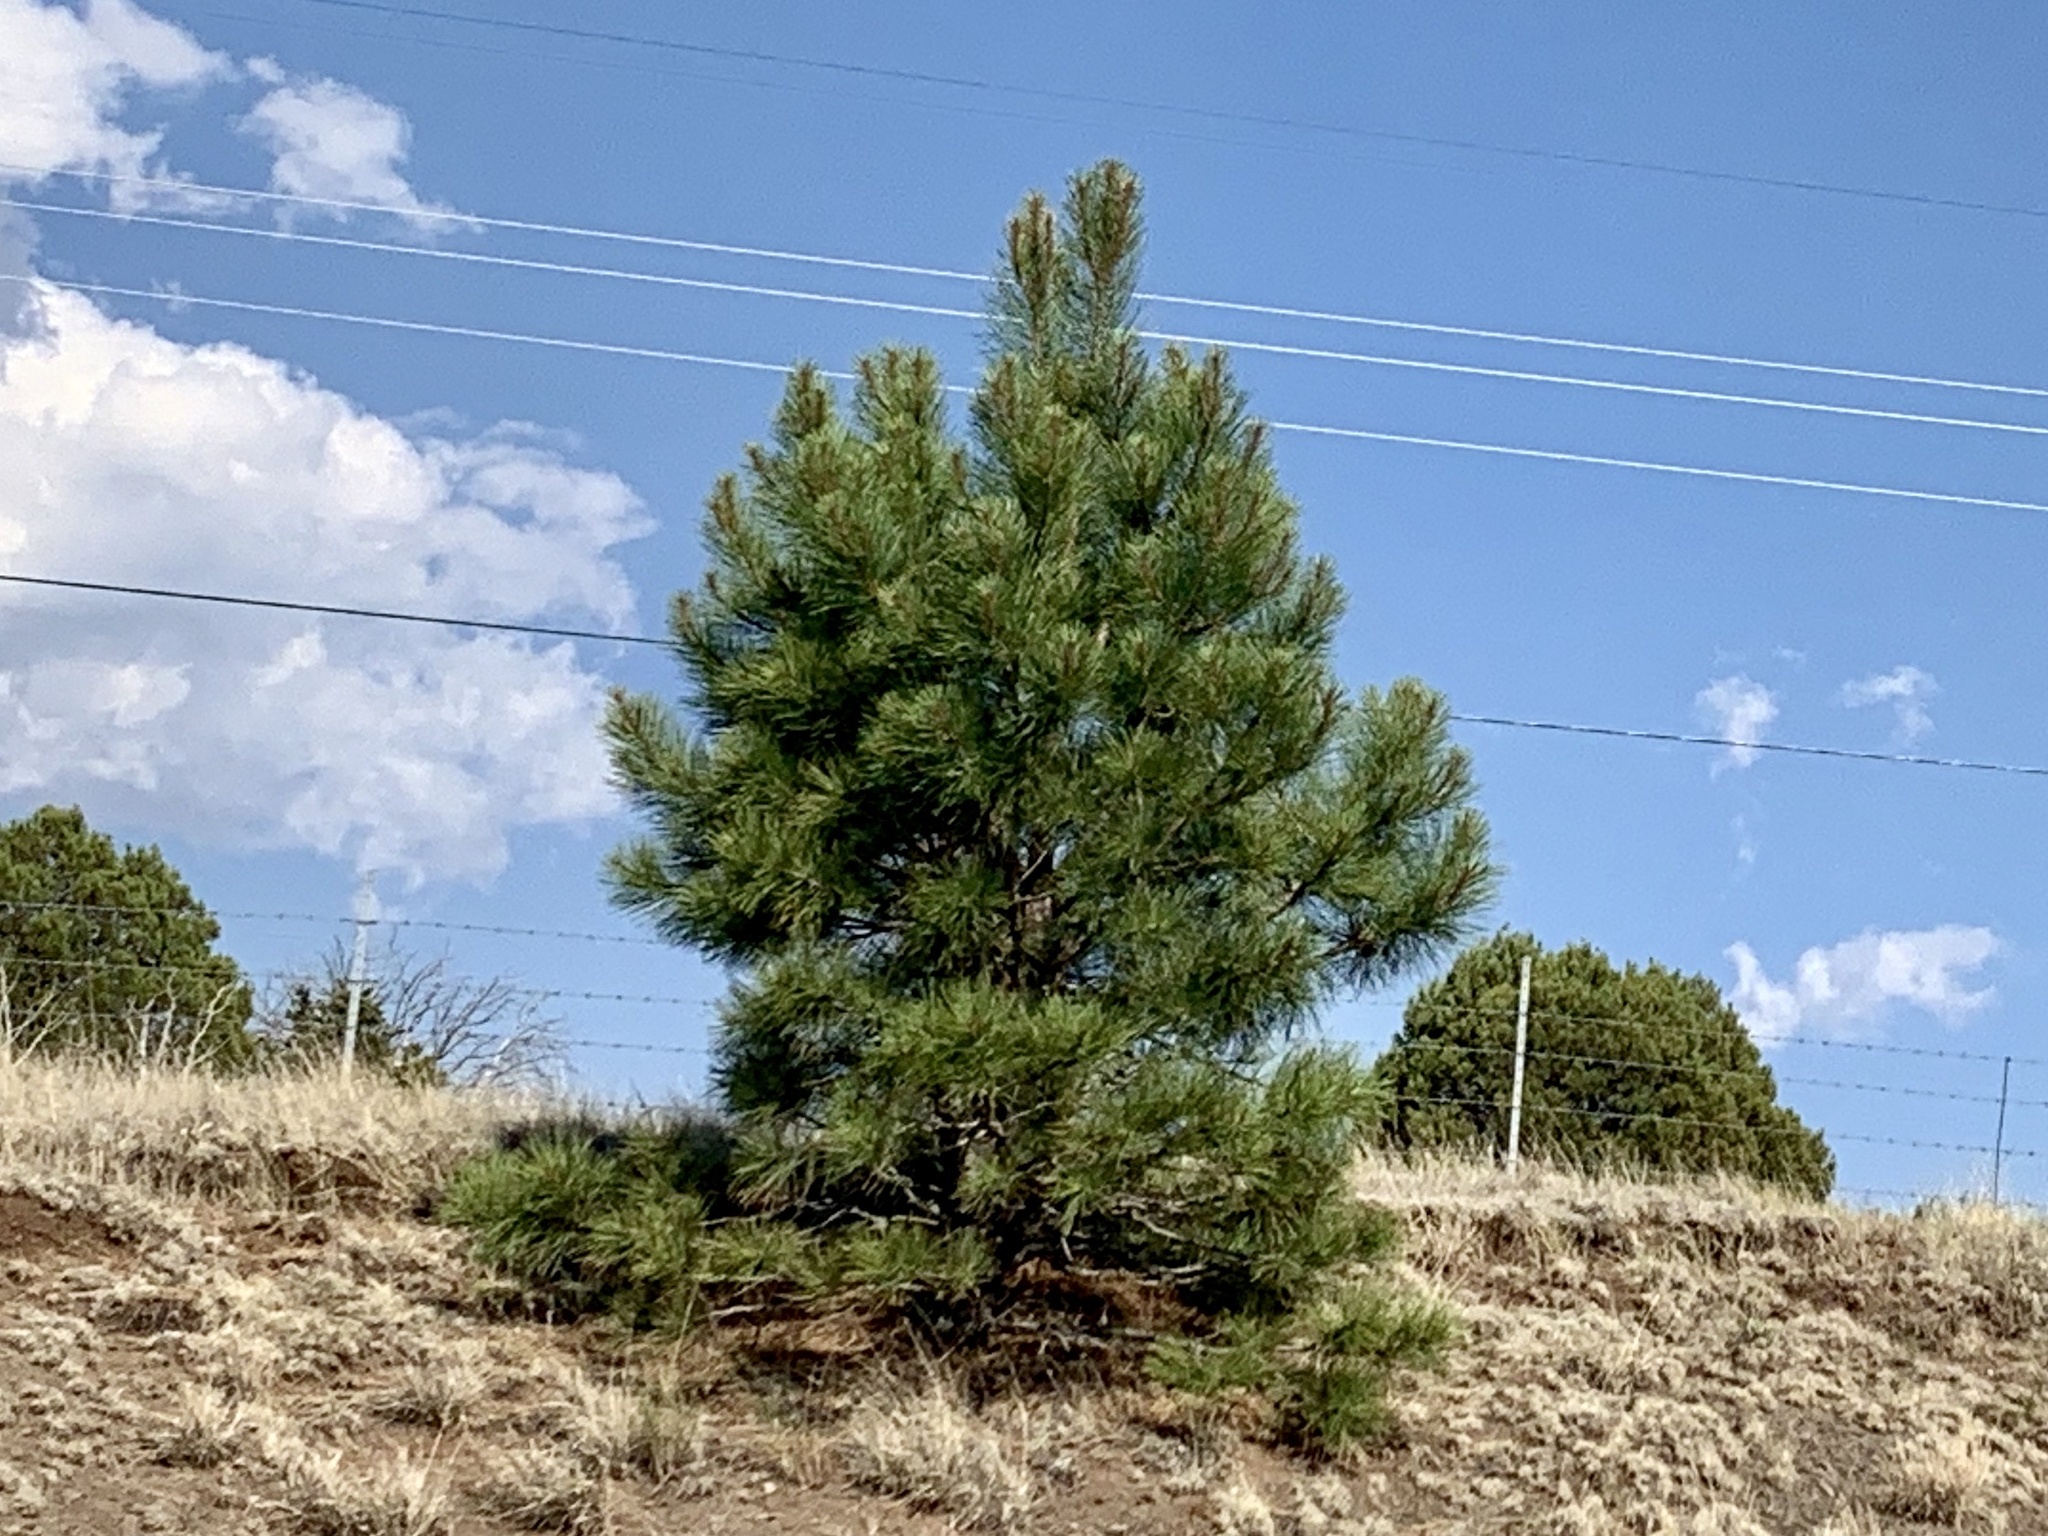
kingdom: Plantae
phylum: Tracheophyta
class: Pinopsida
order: Pinales
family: Pinaceae
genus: Pinus
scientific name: Pinus ponderosa
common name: Western yellow-pine
